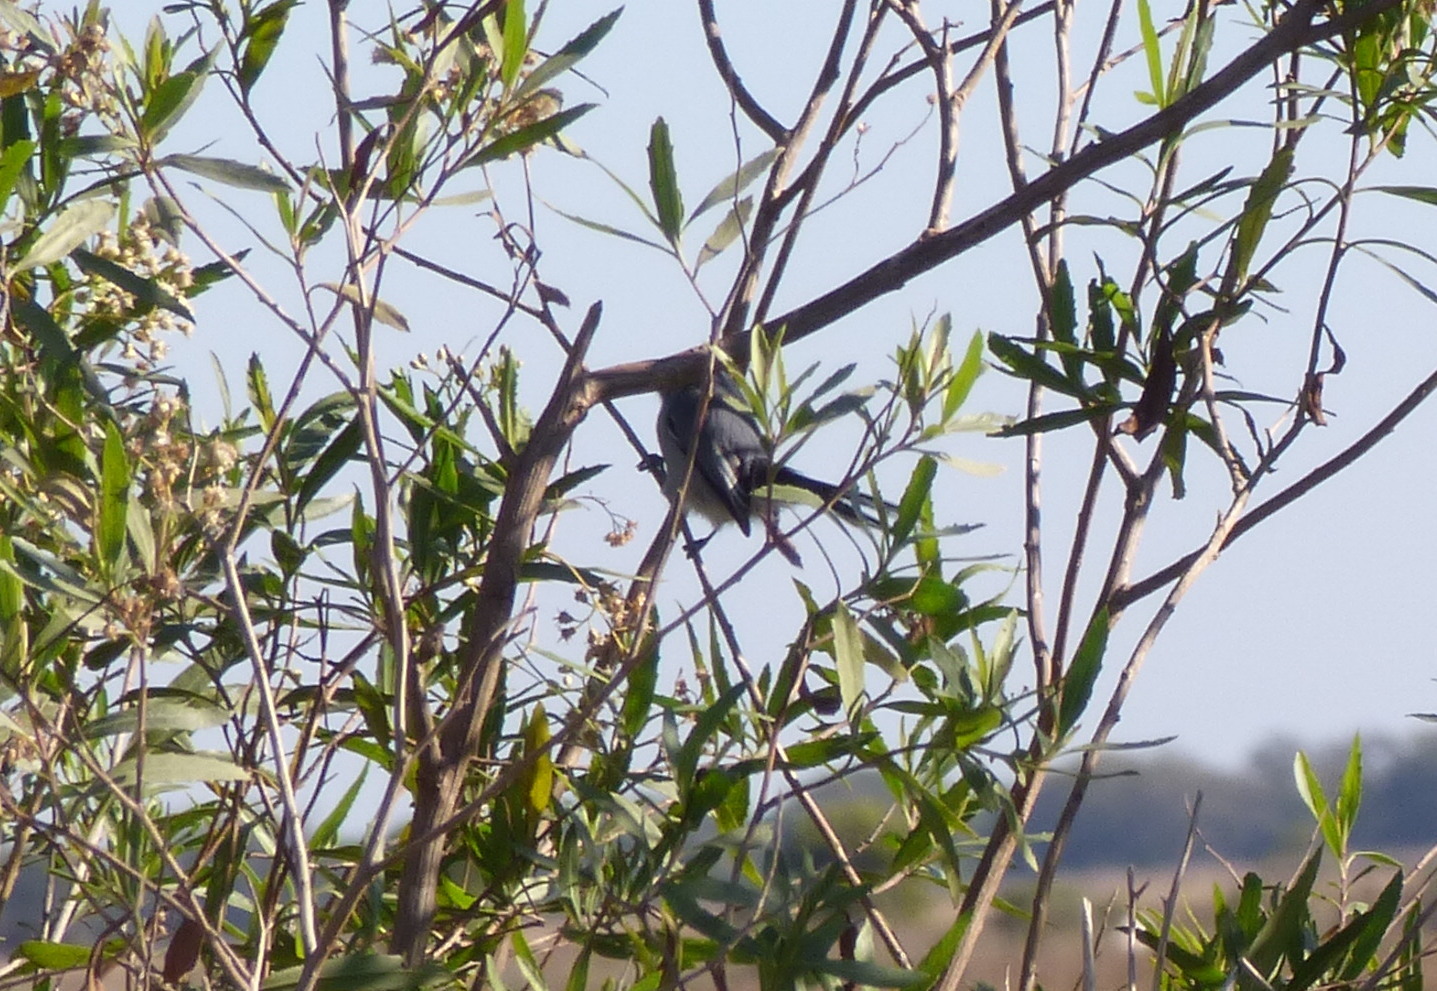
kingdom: Animalia
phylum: Chordata
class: Aves
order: Passeriformes
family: Polioptilidae
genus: Polioptila
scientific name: Polioptila dumicola
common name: Masked gnatcatcher
